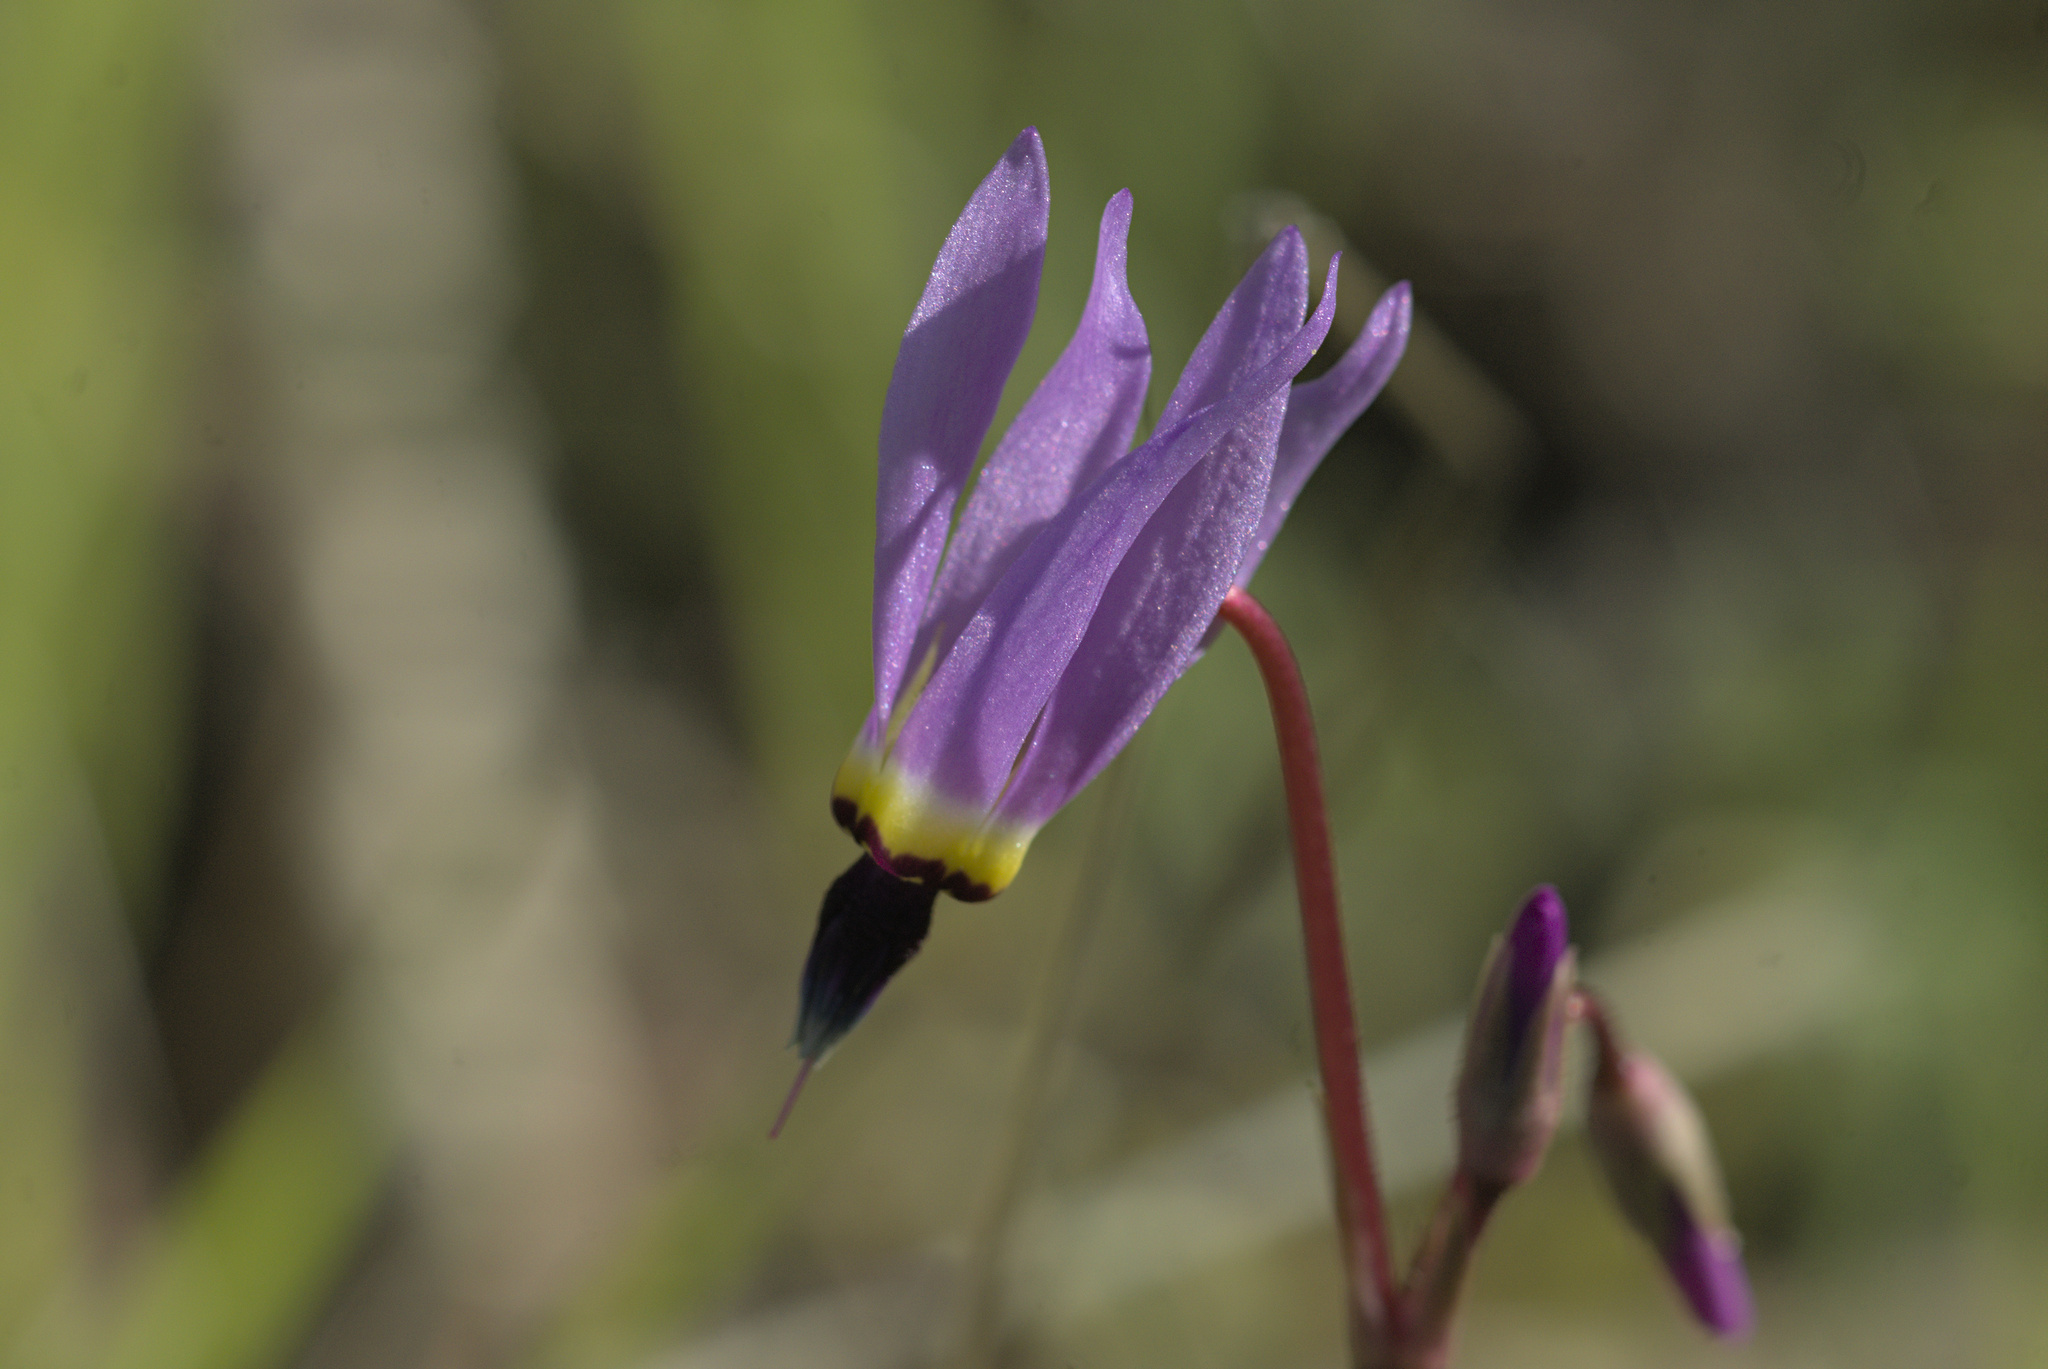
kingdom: Plantae
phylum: Tracheophyta
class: Magnoliopsida
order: Ericales
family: Primulaceae
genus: Dodecatheon
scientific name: Dodecatheon hendersonii
